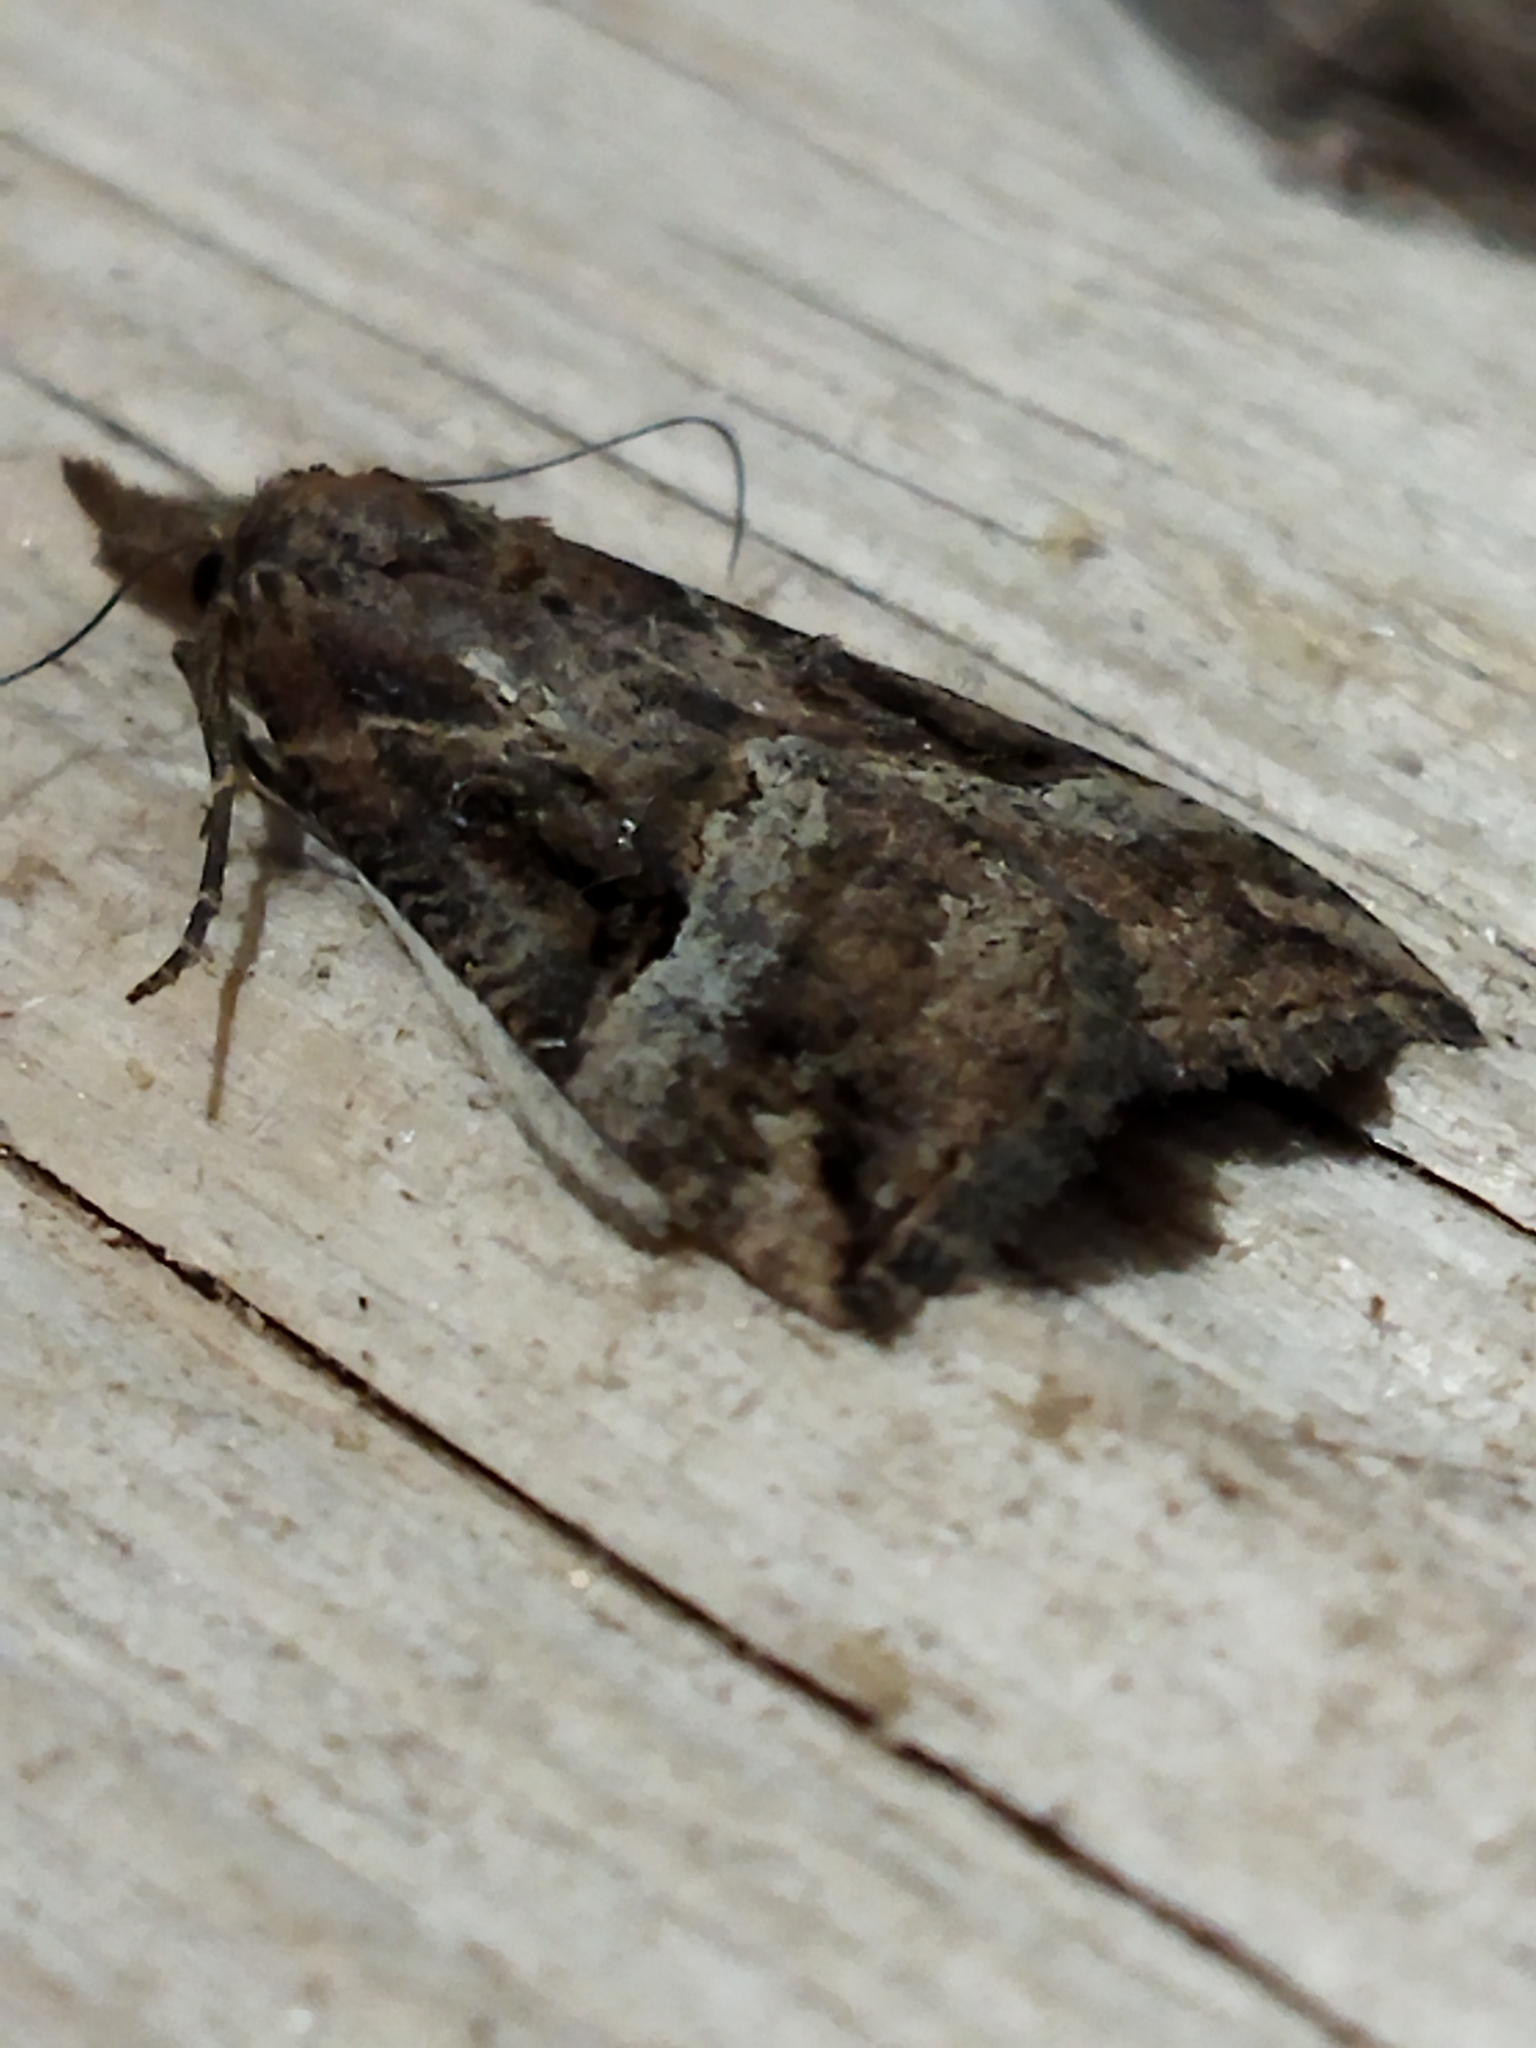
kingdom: Animalia
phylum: Arthropoda
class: Insecta
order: Lepidoptera
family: Erebidae
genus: Hypena
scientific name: Hypena rostralis
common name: Buttoned snout
